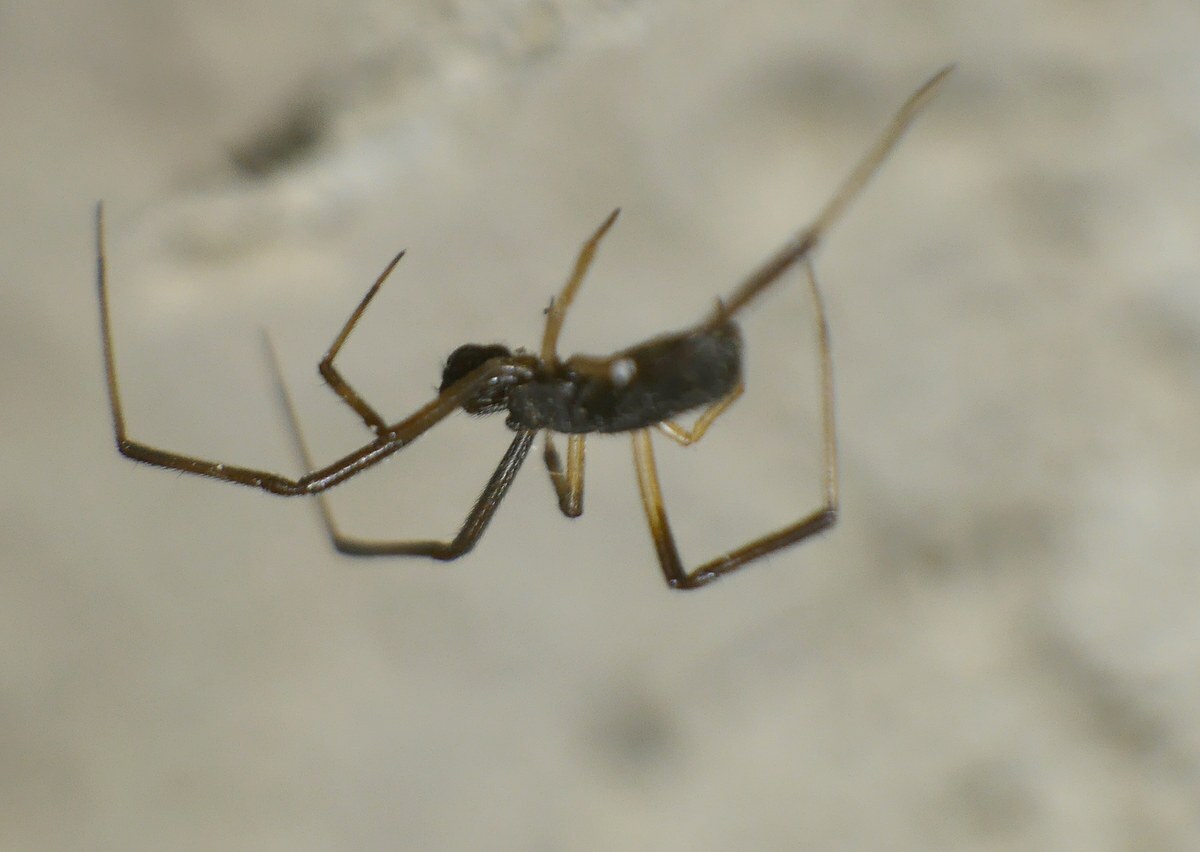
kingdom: Animalia
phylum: Arthropoda
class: Arachnida
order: Araneae
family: Theridiidae
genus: Episinus
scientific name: Episinus truncatus
